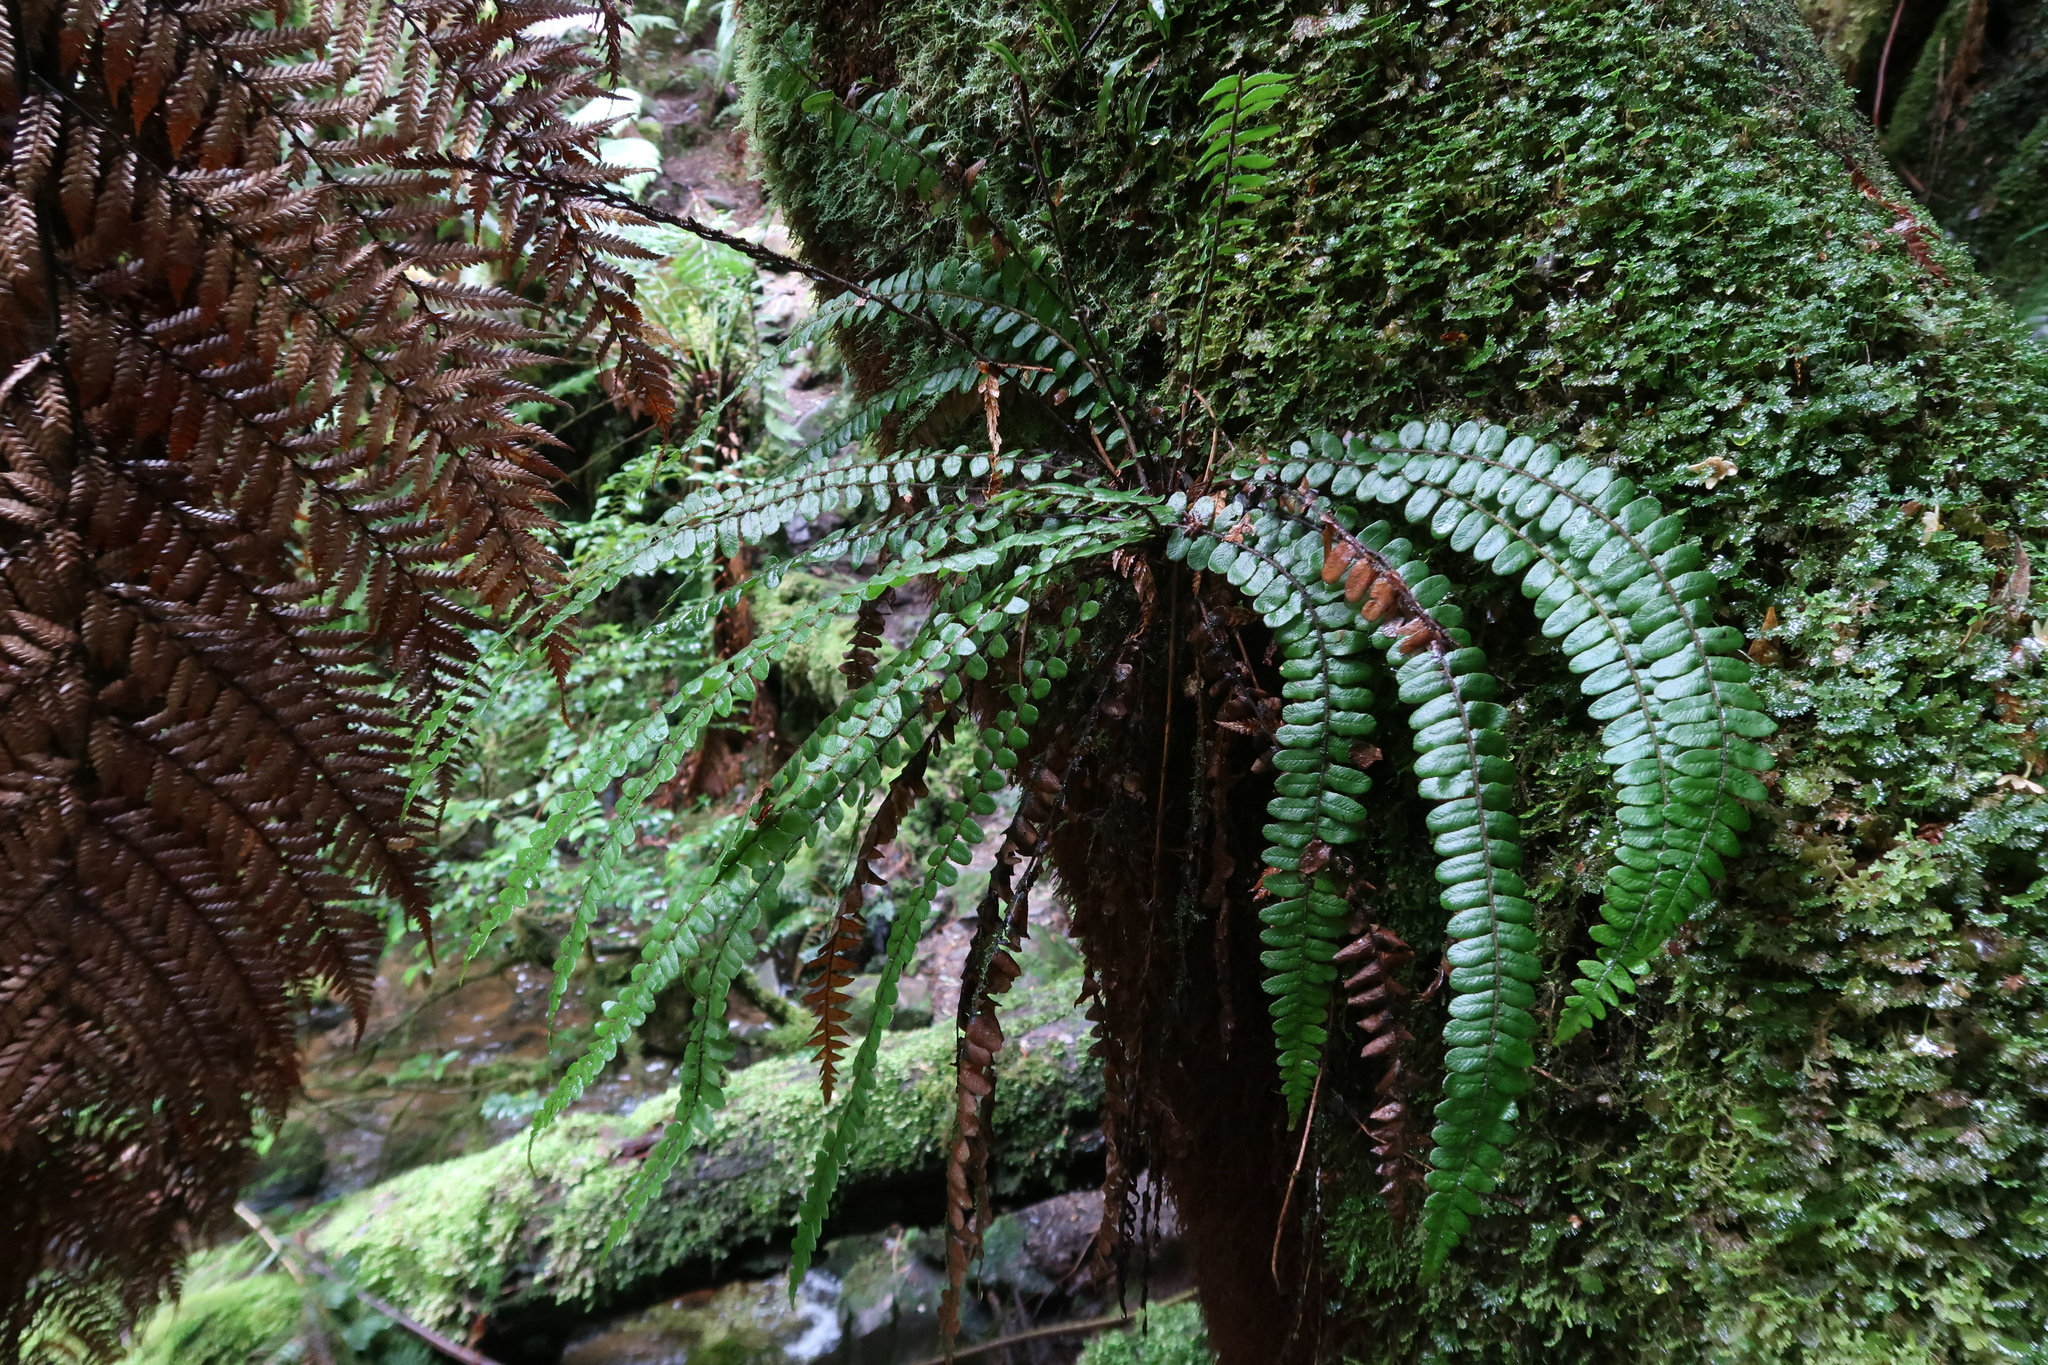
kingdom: Plantae
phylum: Tracheophyta
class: Polypodiopsida
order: Polypodiales
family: Blechnaceae
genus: Cranfillia
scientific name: Cranfillia fluviatilis
